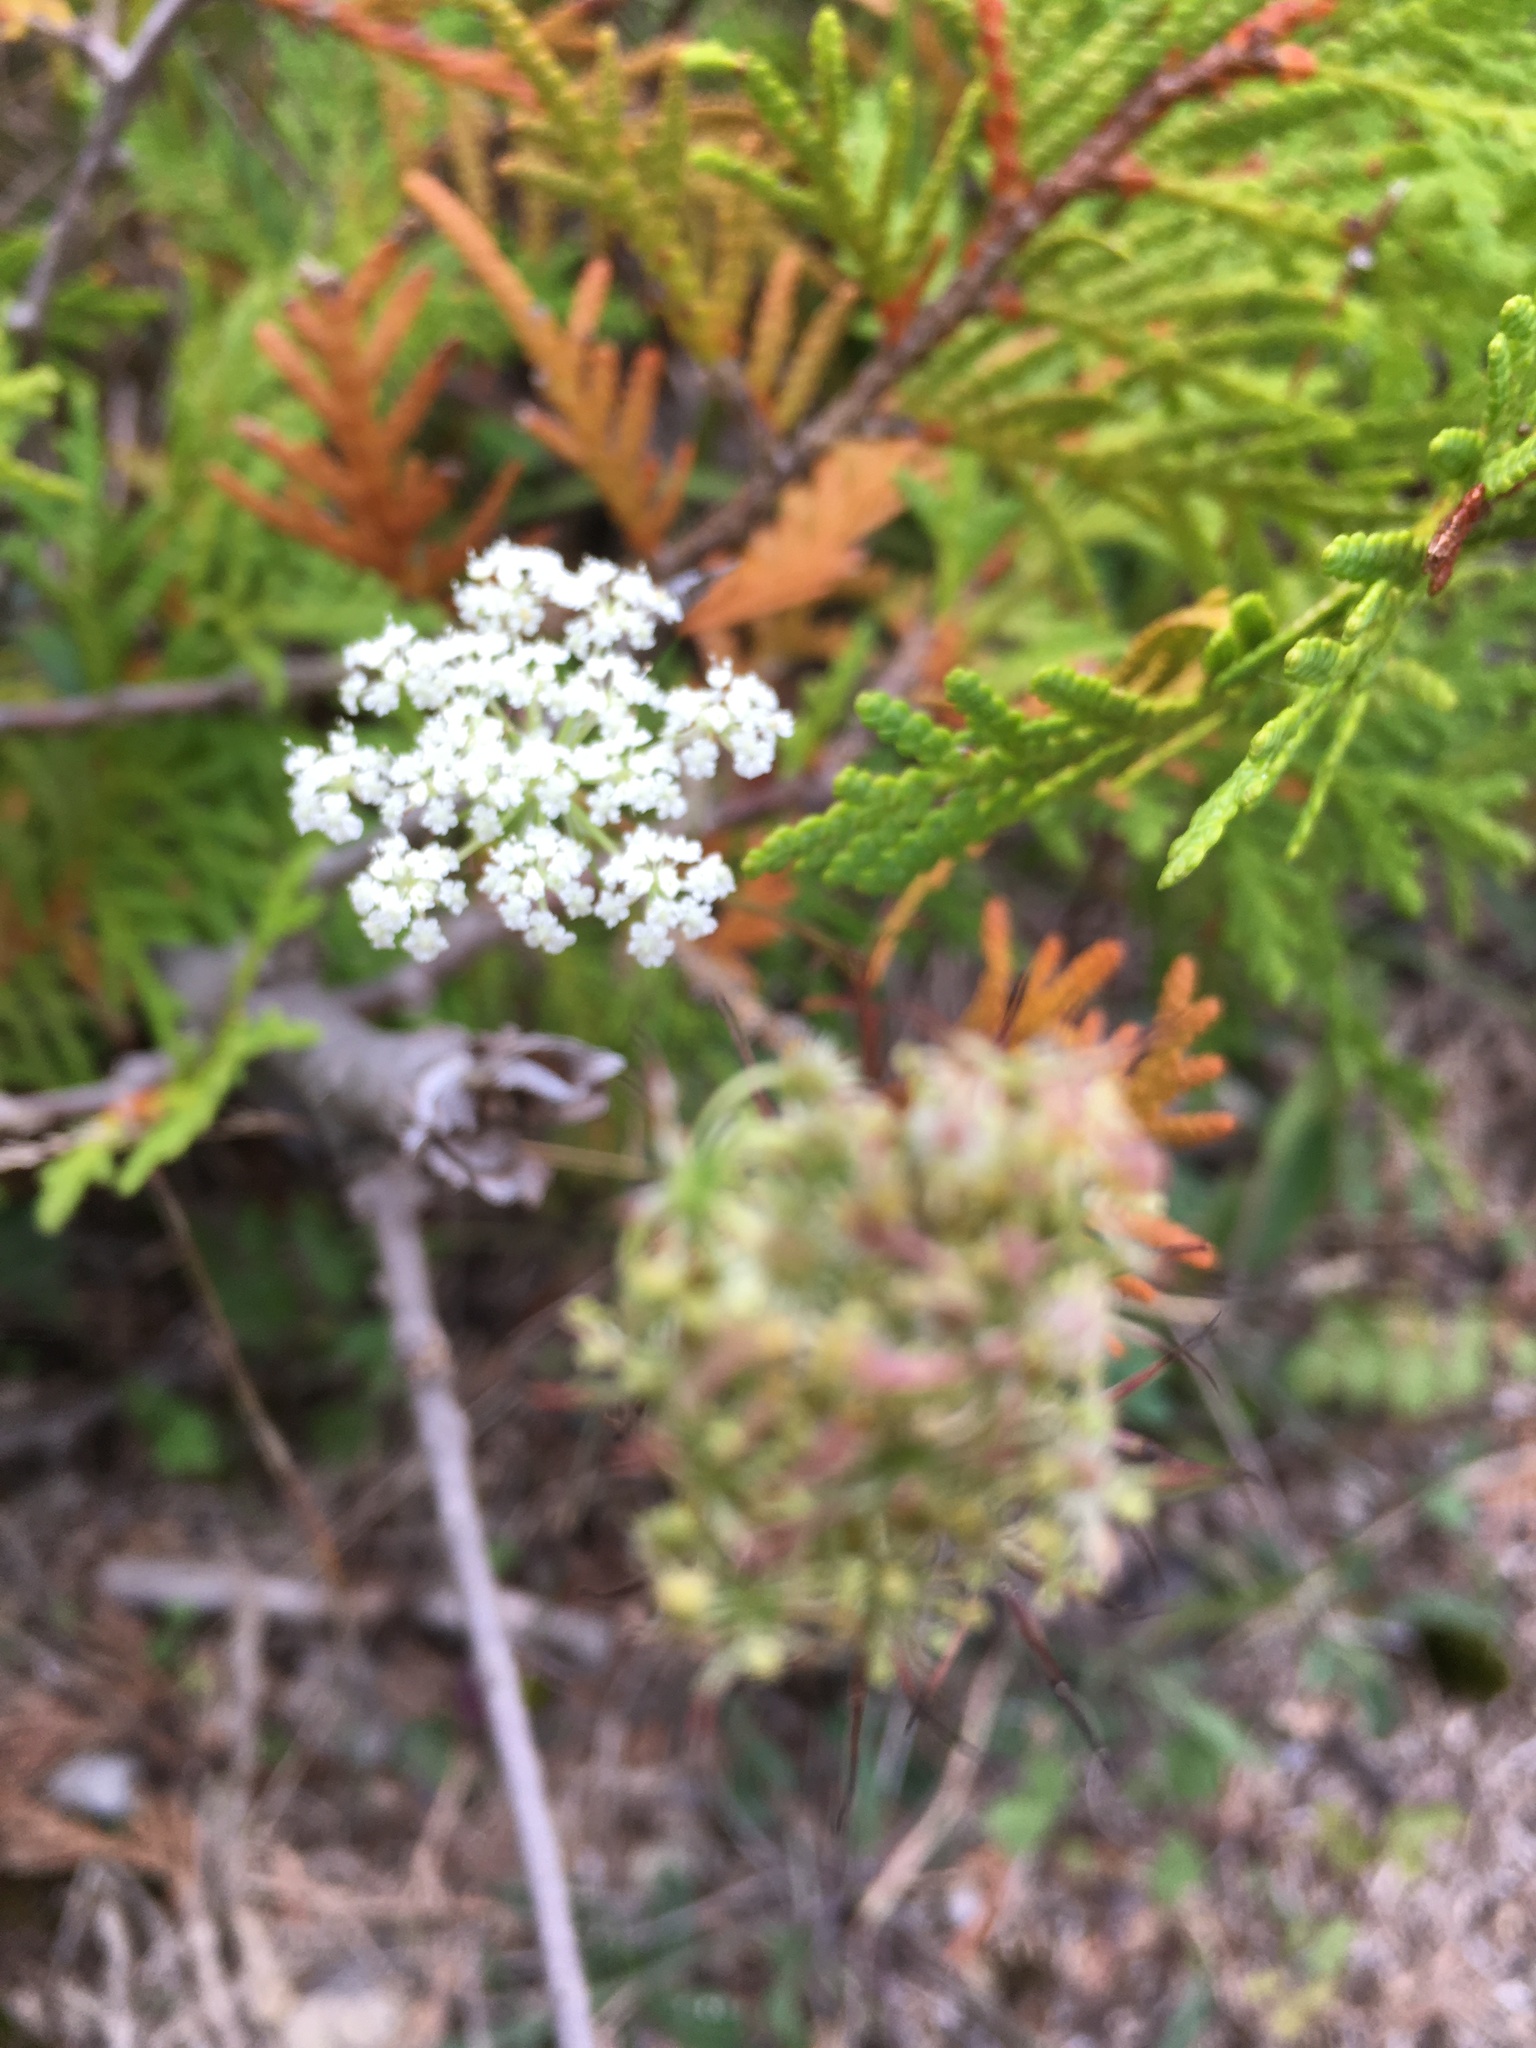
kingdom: Plantae
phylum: Tracheophyta
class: Magnoliopsida
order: Apiales
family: Apiaceae
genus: Daucus
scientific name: Daucus carota
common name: Wild carrot
